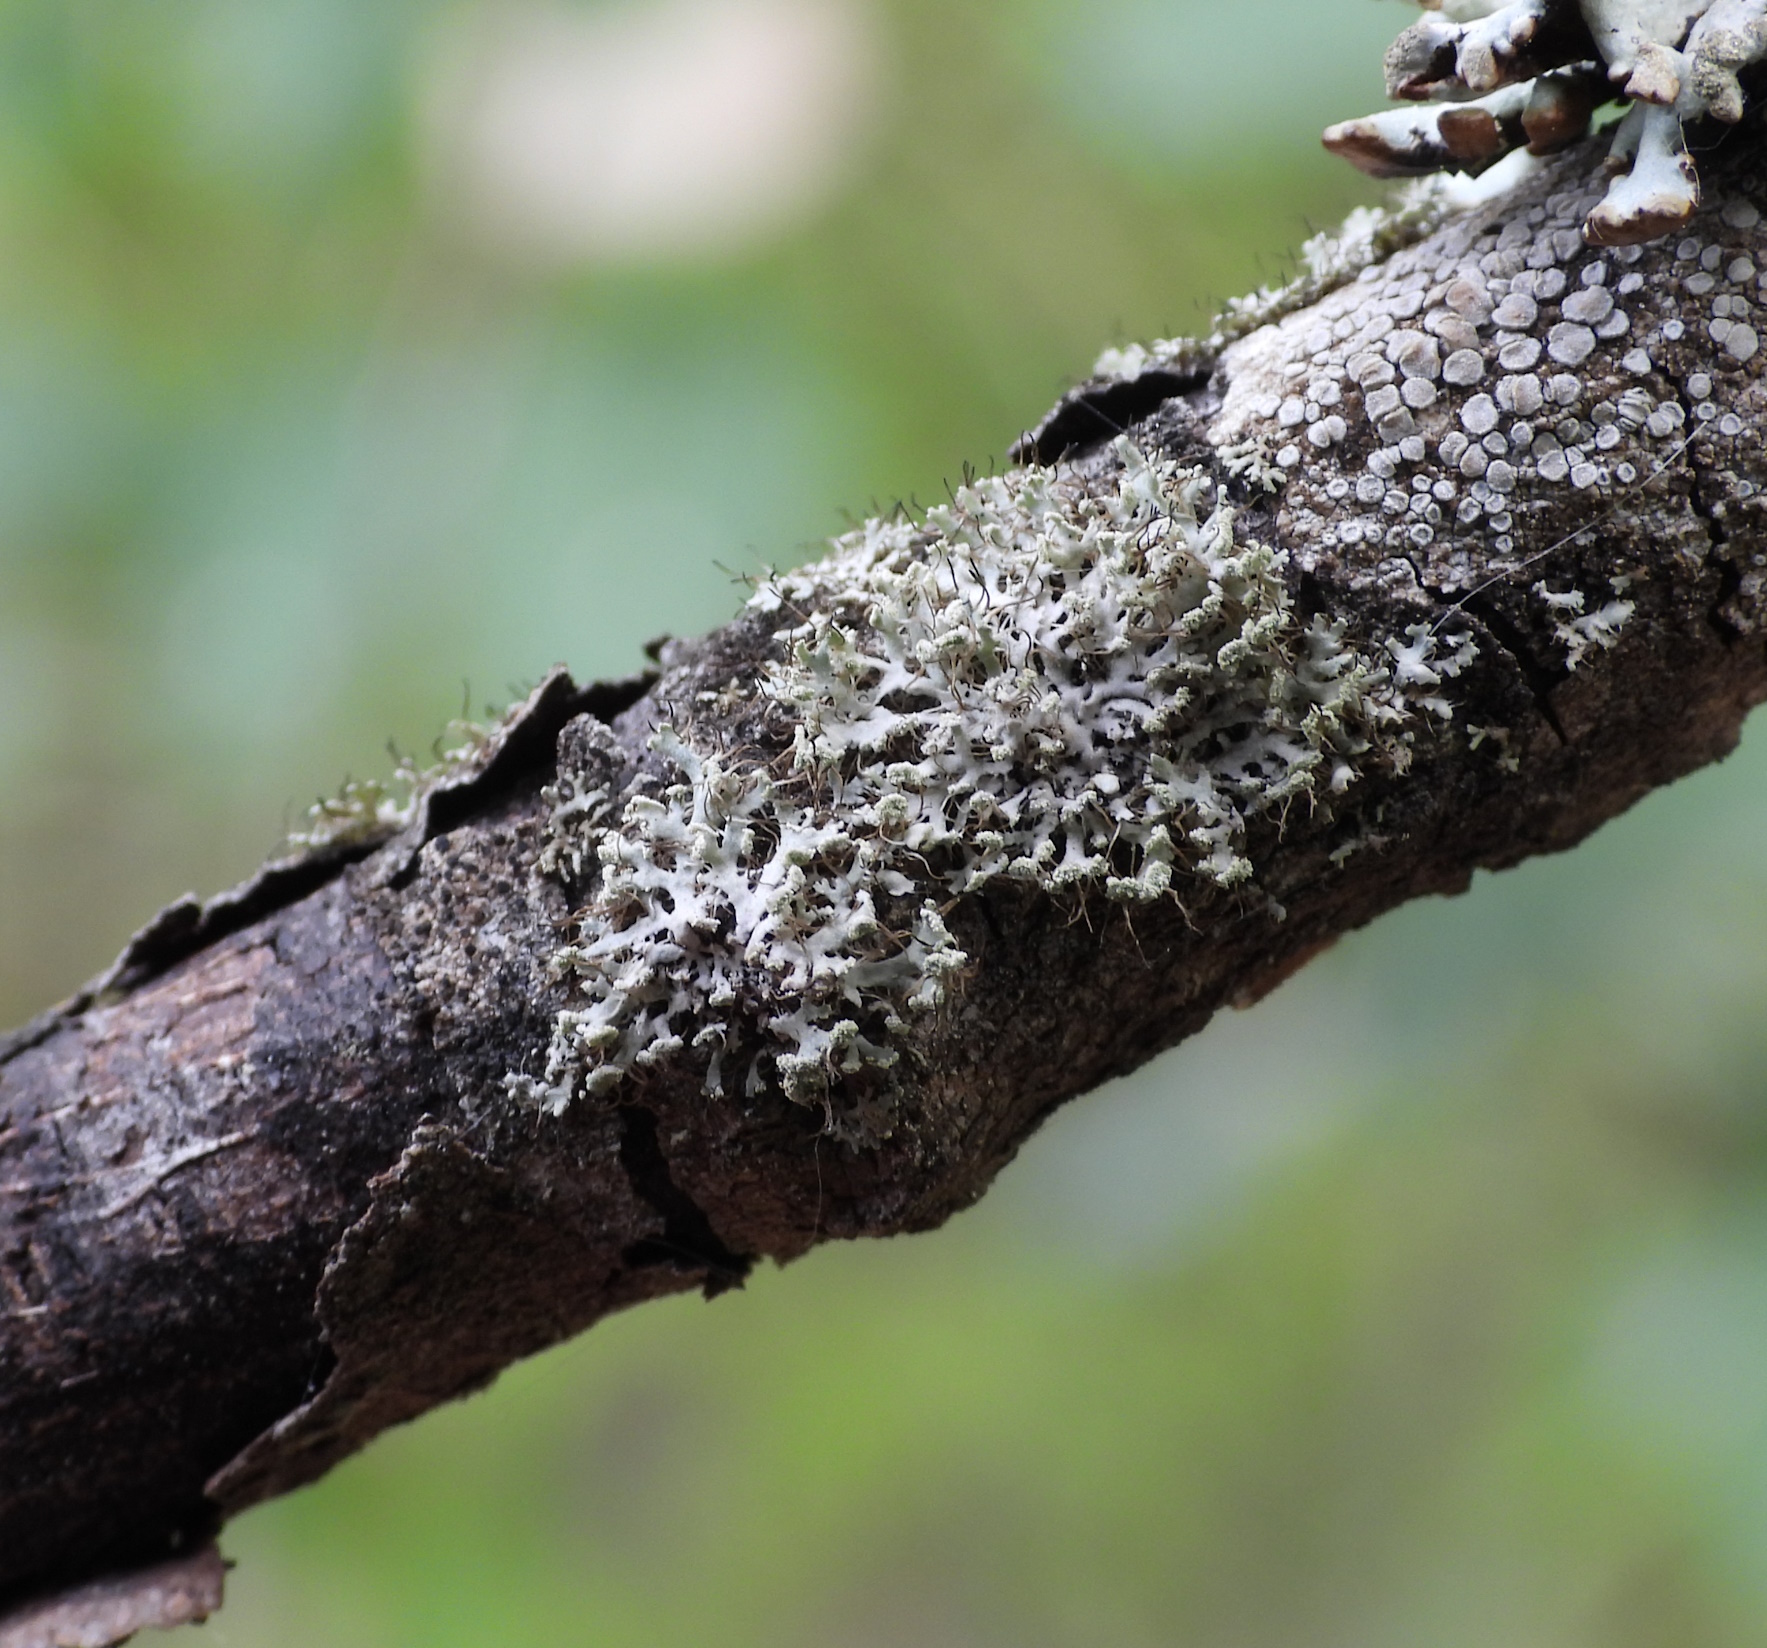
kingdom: Fungi
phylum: Ascomycota
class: Lecanoromycetes
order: Caliciales
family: Physciaceae
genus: Physcia
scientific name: Physcia tenella
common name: Fringed rosette lichen
